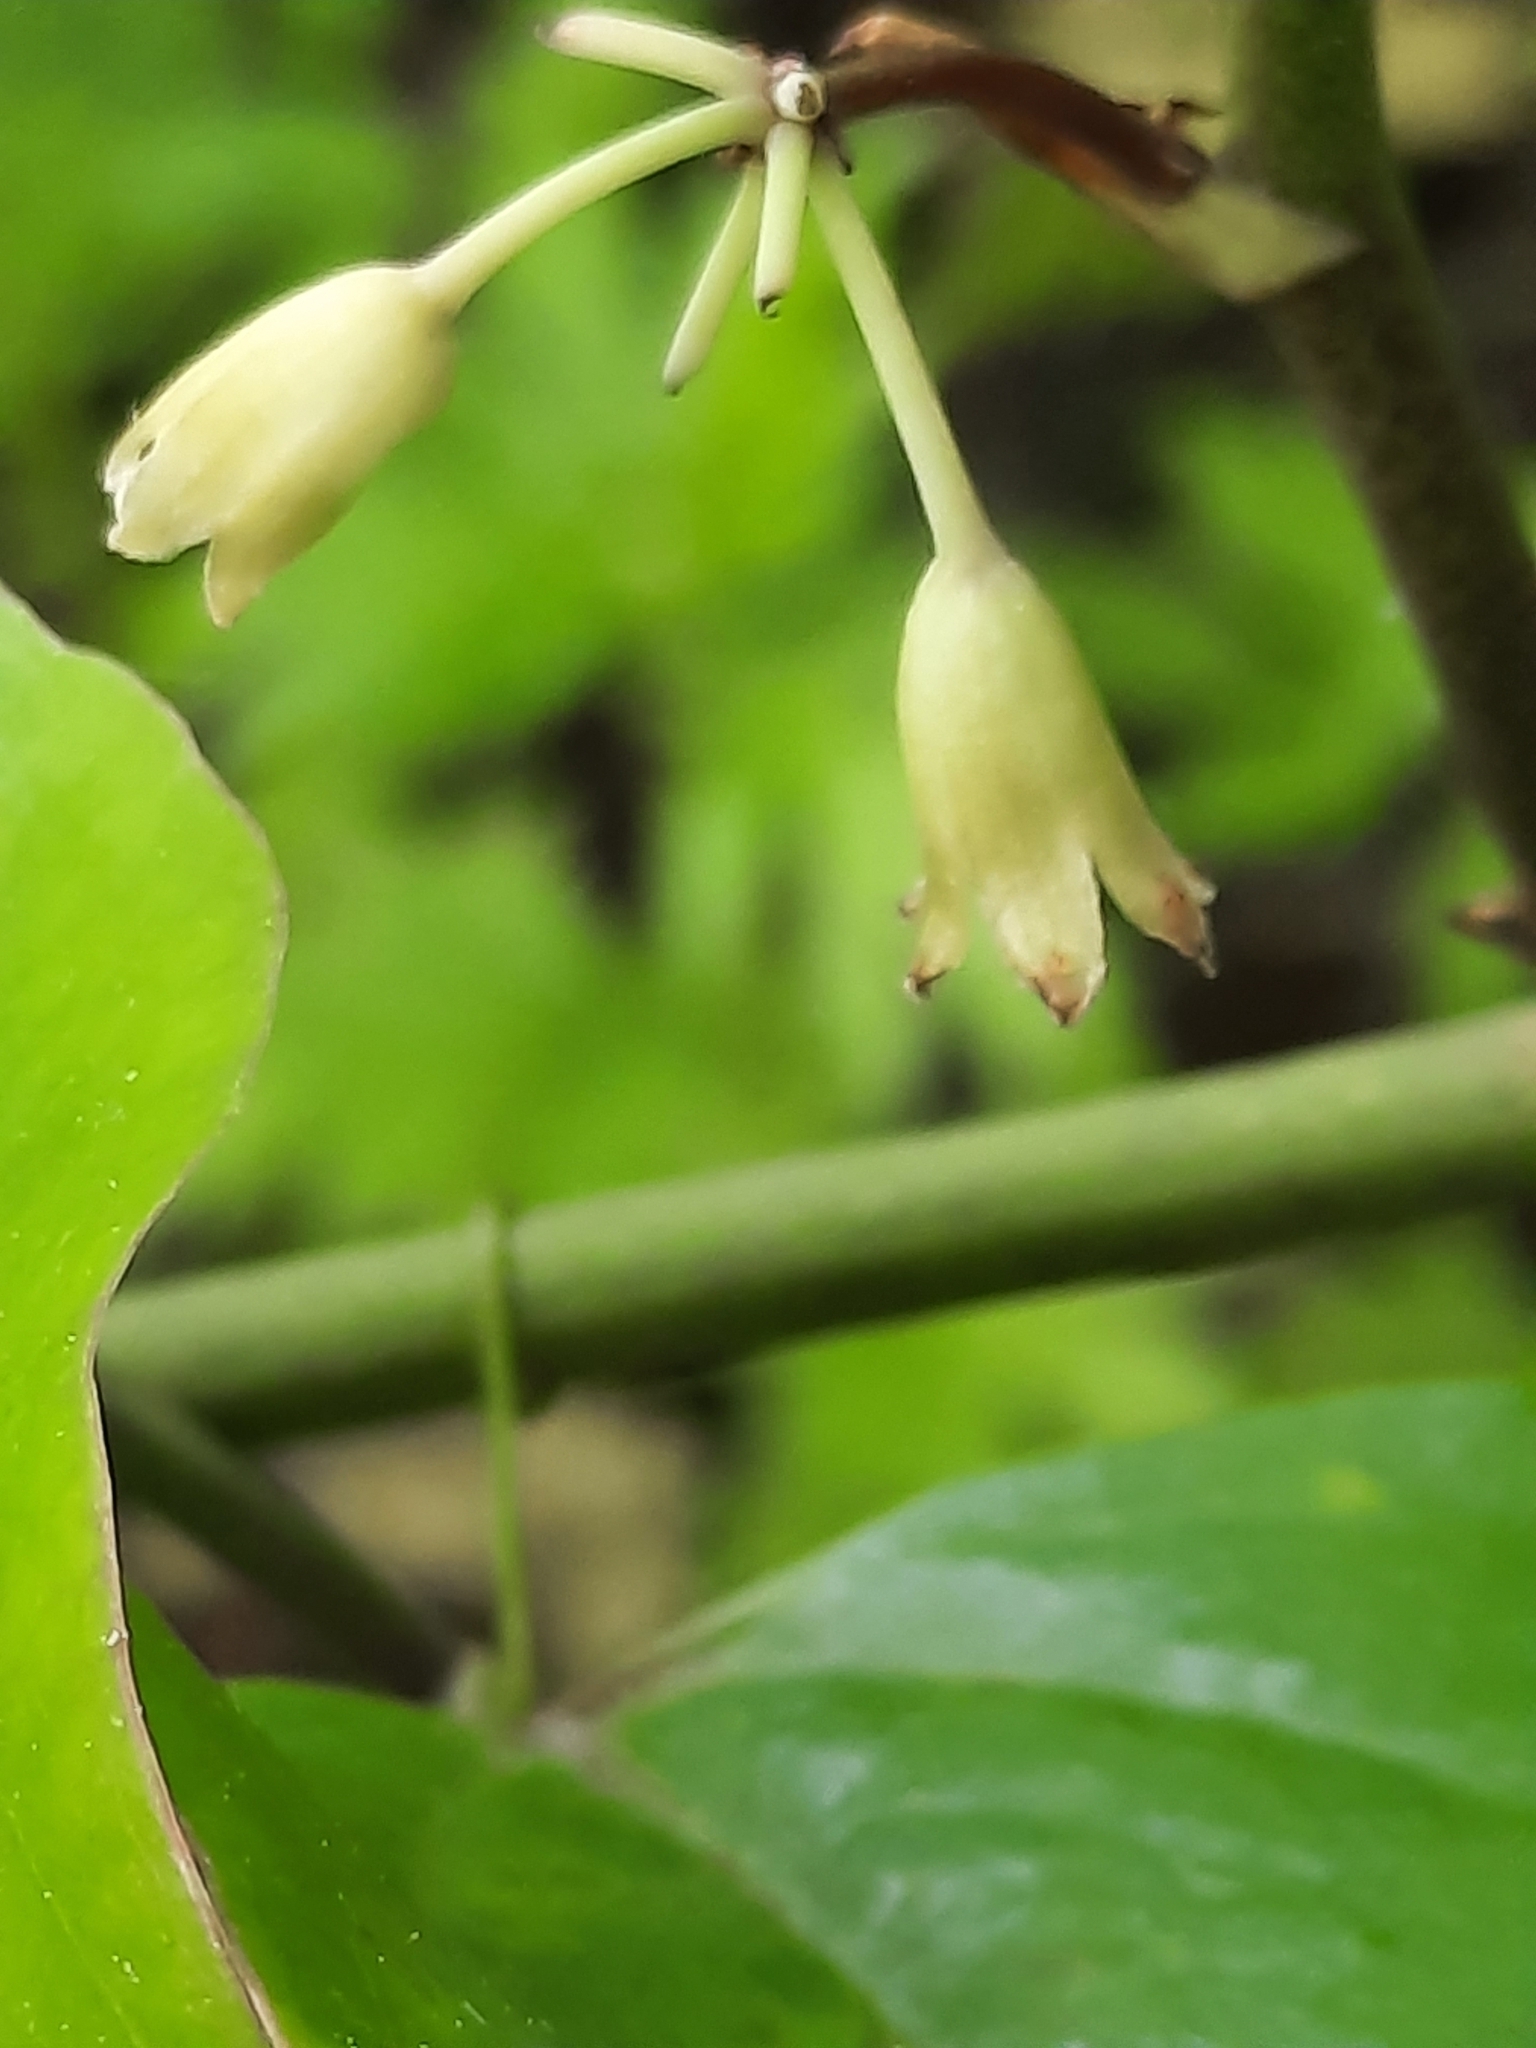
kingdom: Plantae
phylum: Tracheophyta
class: Liliopsida
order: Liliales
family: Smilacaceae
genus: Smilax
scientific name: Smilax rotundifolia
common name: Bullbriar
